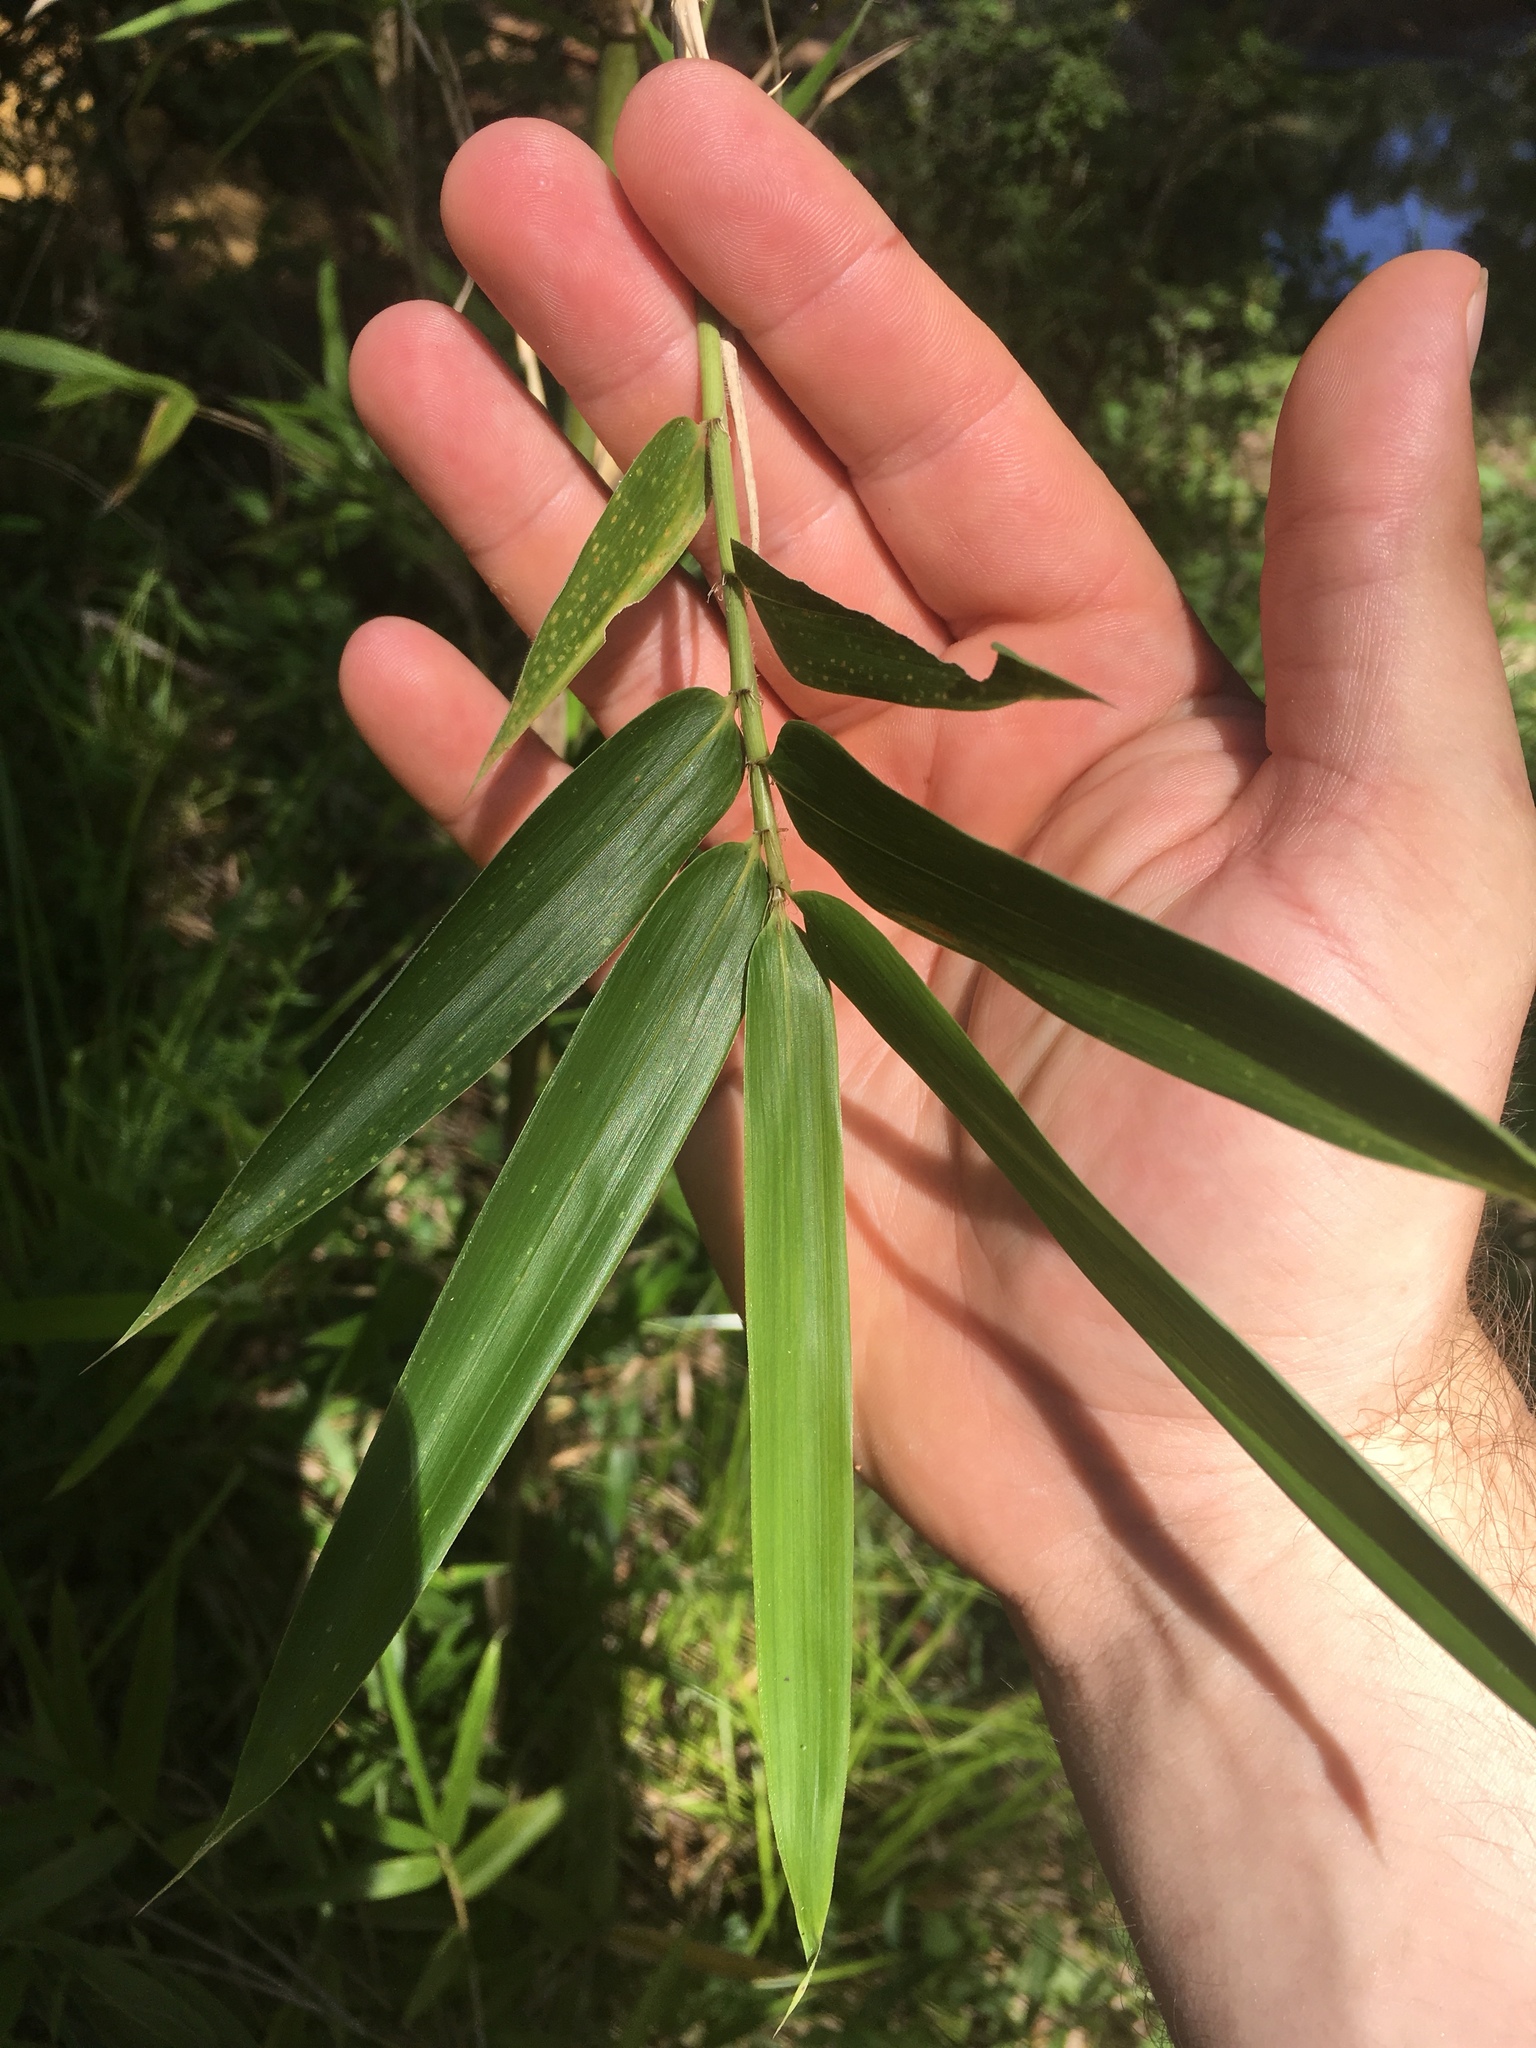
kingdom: Plantae
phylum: Tracheophyta
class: Liliopsida
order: Poales
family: Poaceae
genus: Arundinaria
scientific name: Arundinaria gigantea
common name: Giant cane
